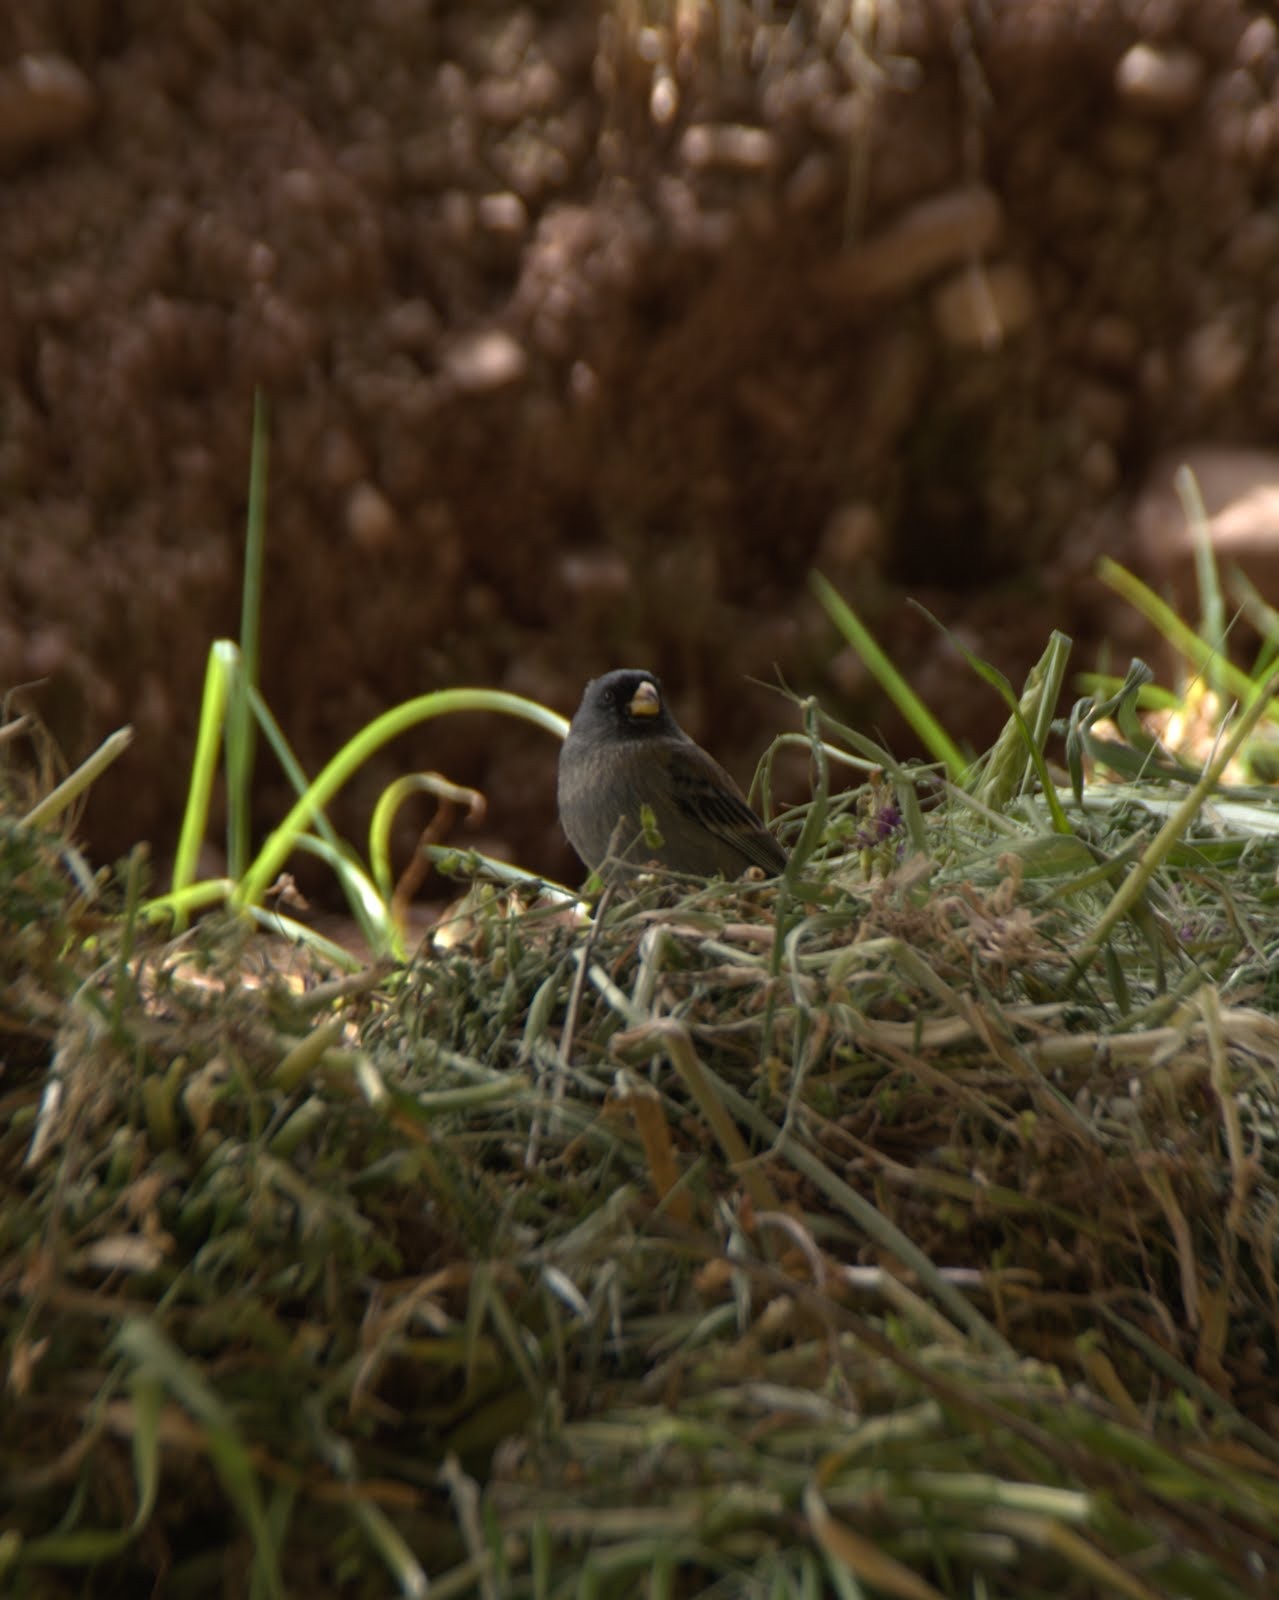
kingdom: Animalia
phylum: Chordata
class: Aves
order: Passeriformes
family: Thraupidae
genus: Catamenia
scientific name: Catamenia analis
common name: Band-tailed seedeater
